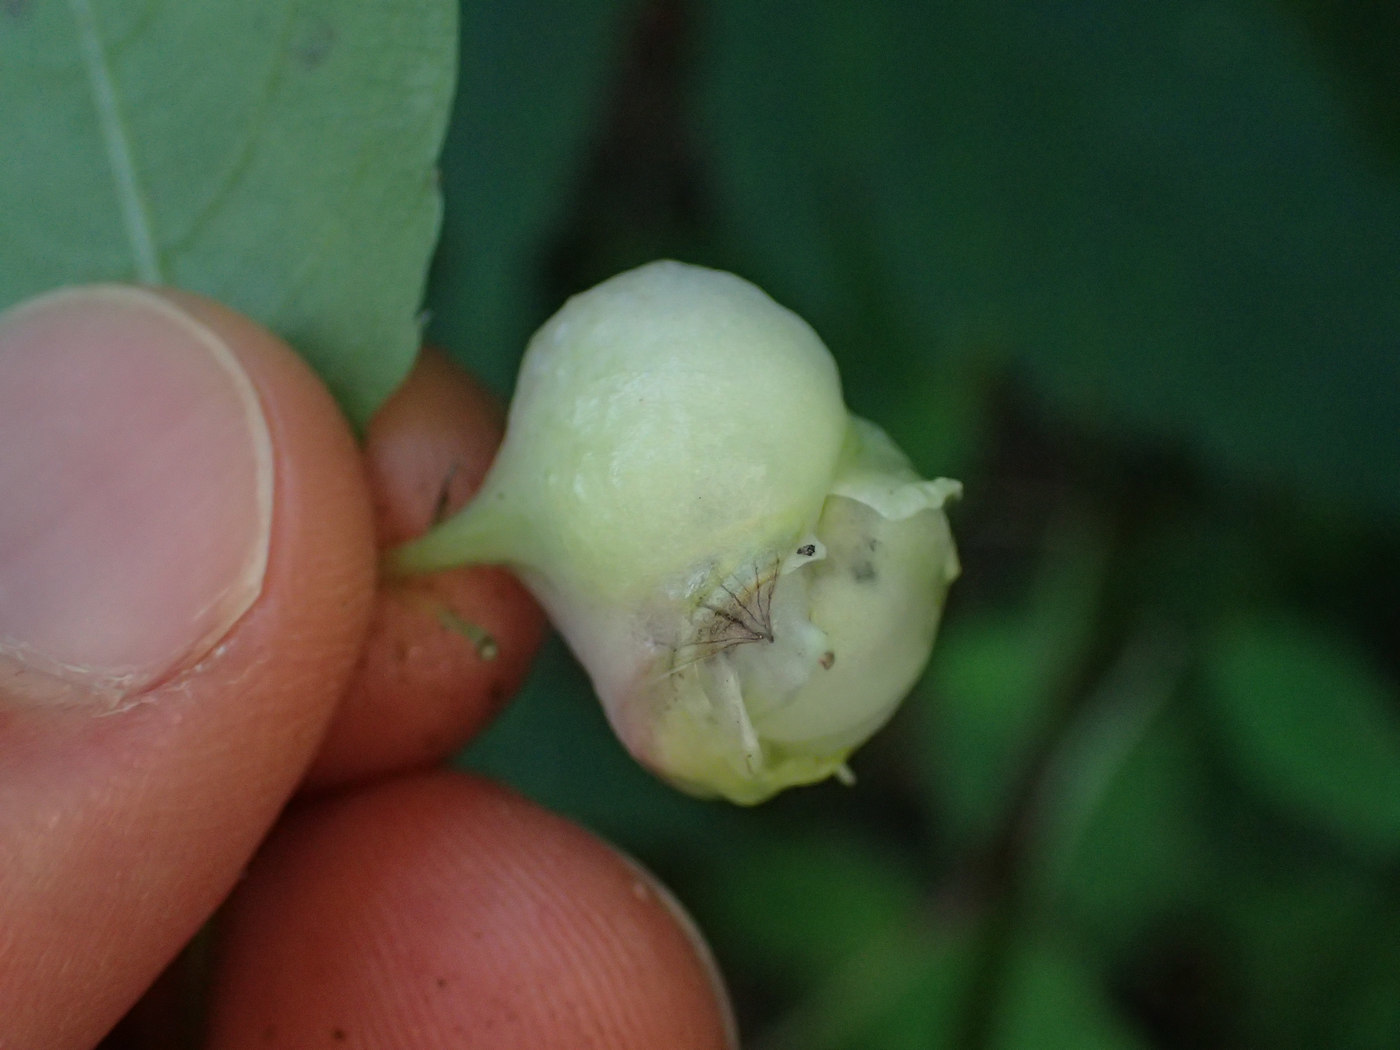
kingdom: Animalia
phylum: Arthropoda
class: Insecta
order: Diptera
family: Cecidomyiidae
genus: Schizomyia
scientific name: Schizomyia impatientis
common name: Jewelweed gall midge
